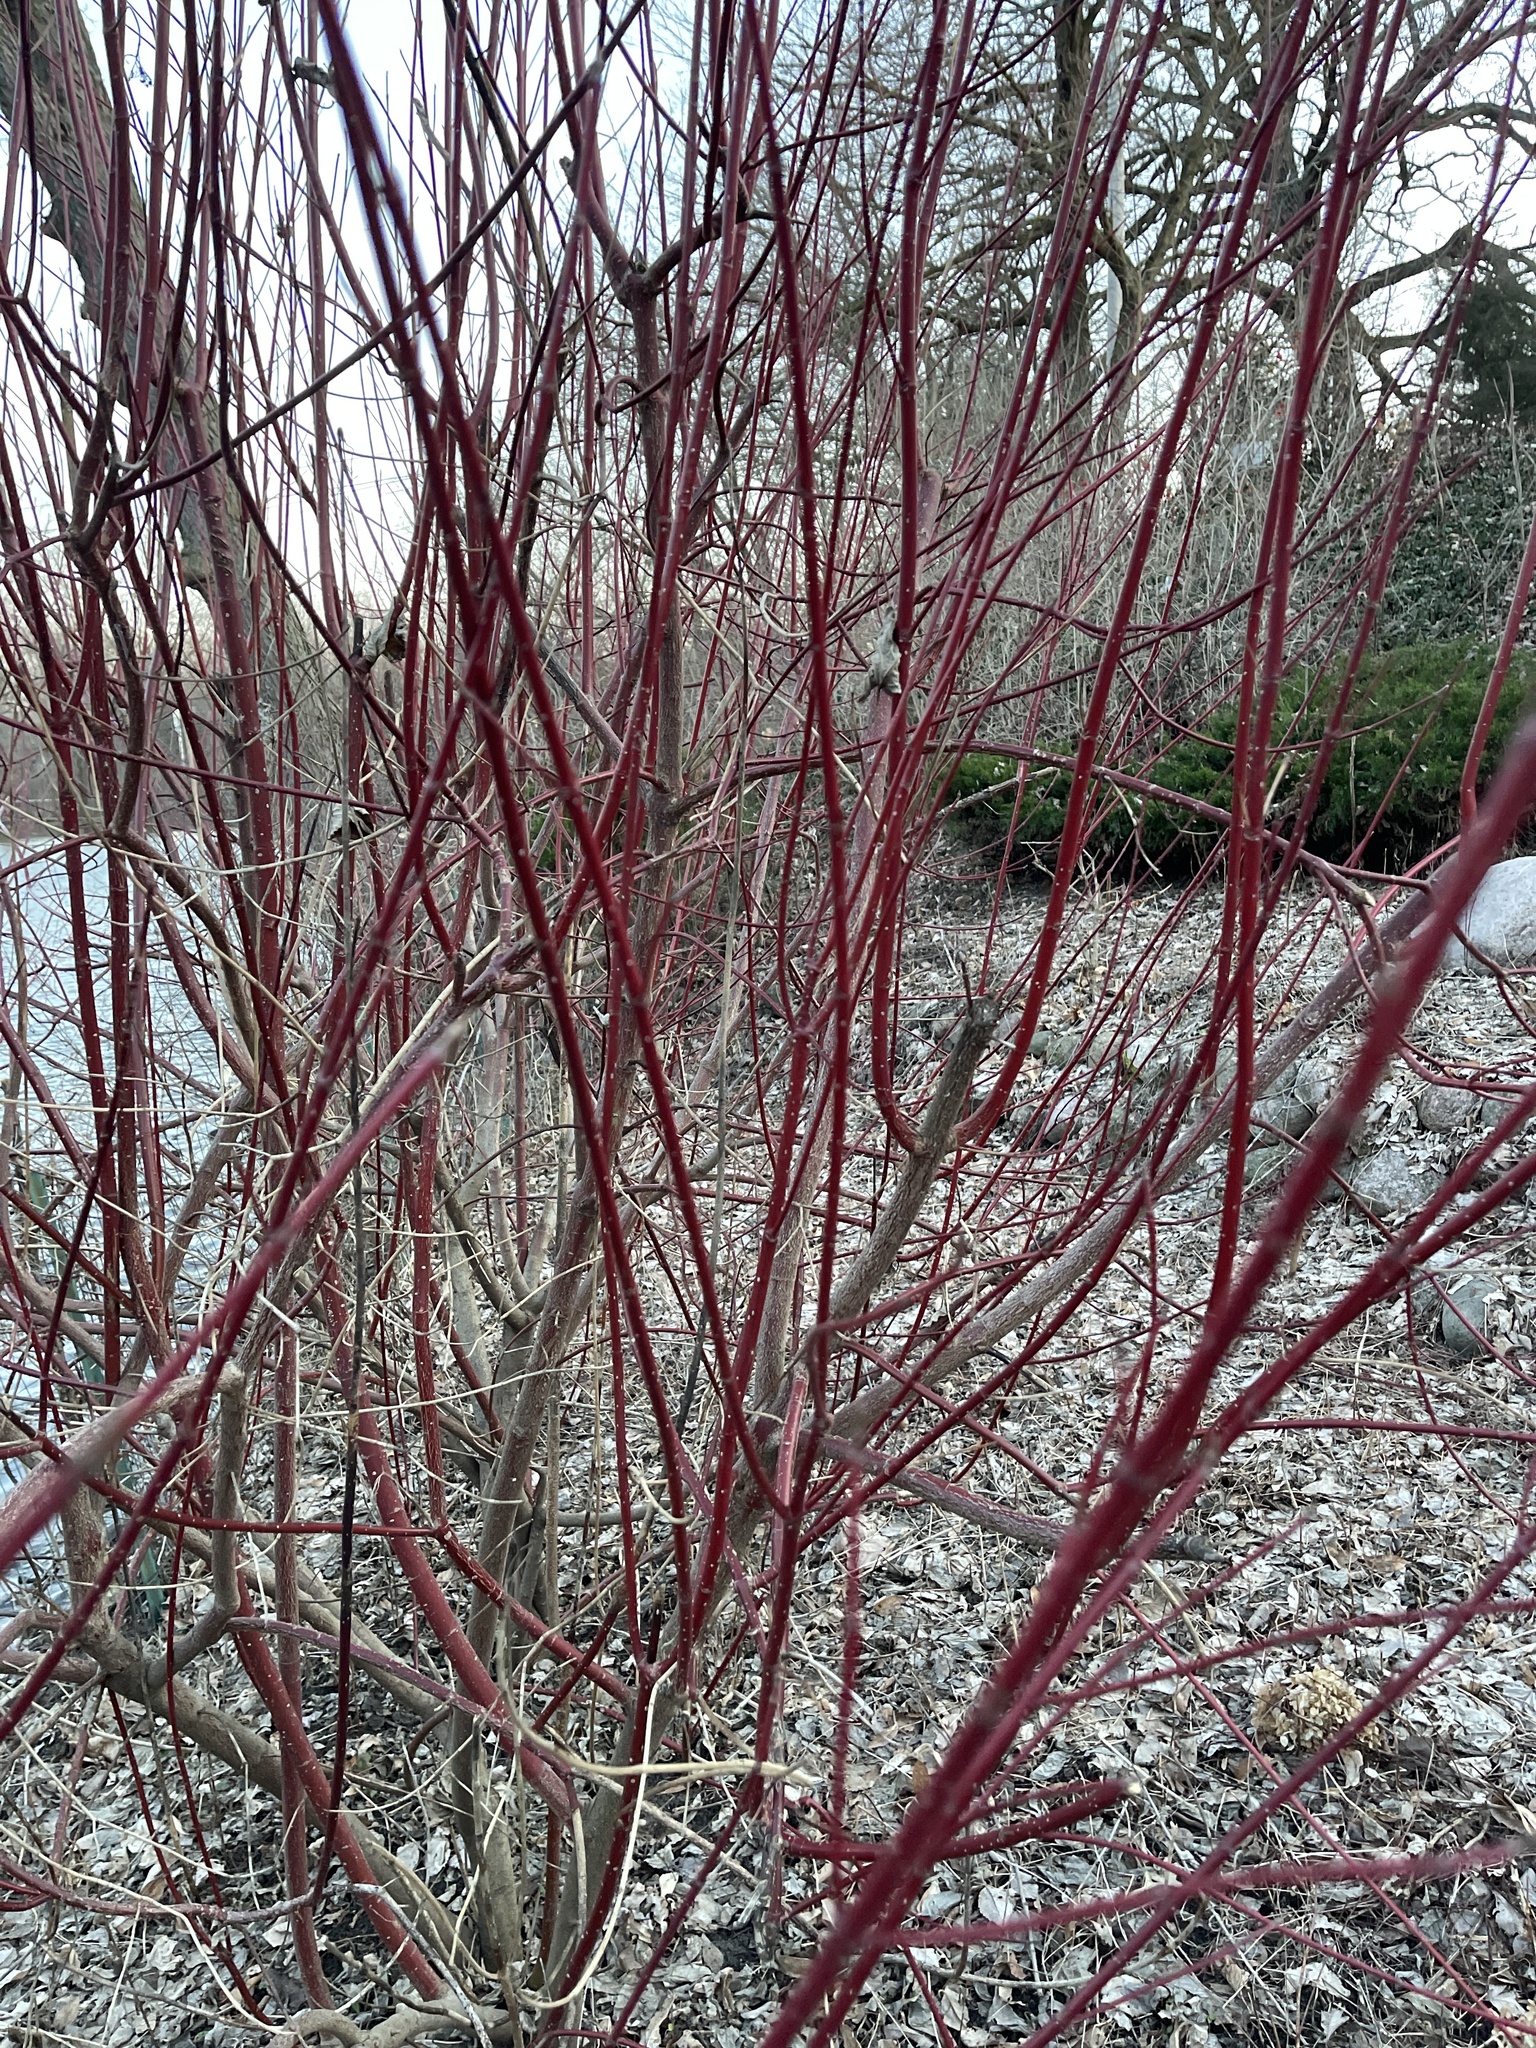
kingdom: Plantae
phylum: Tracheophyta
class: Magnoliopsida
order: Cornales
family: Cornaceae
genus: Cornus
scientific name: Cornus sericea
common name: Red-osier dogwood
